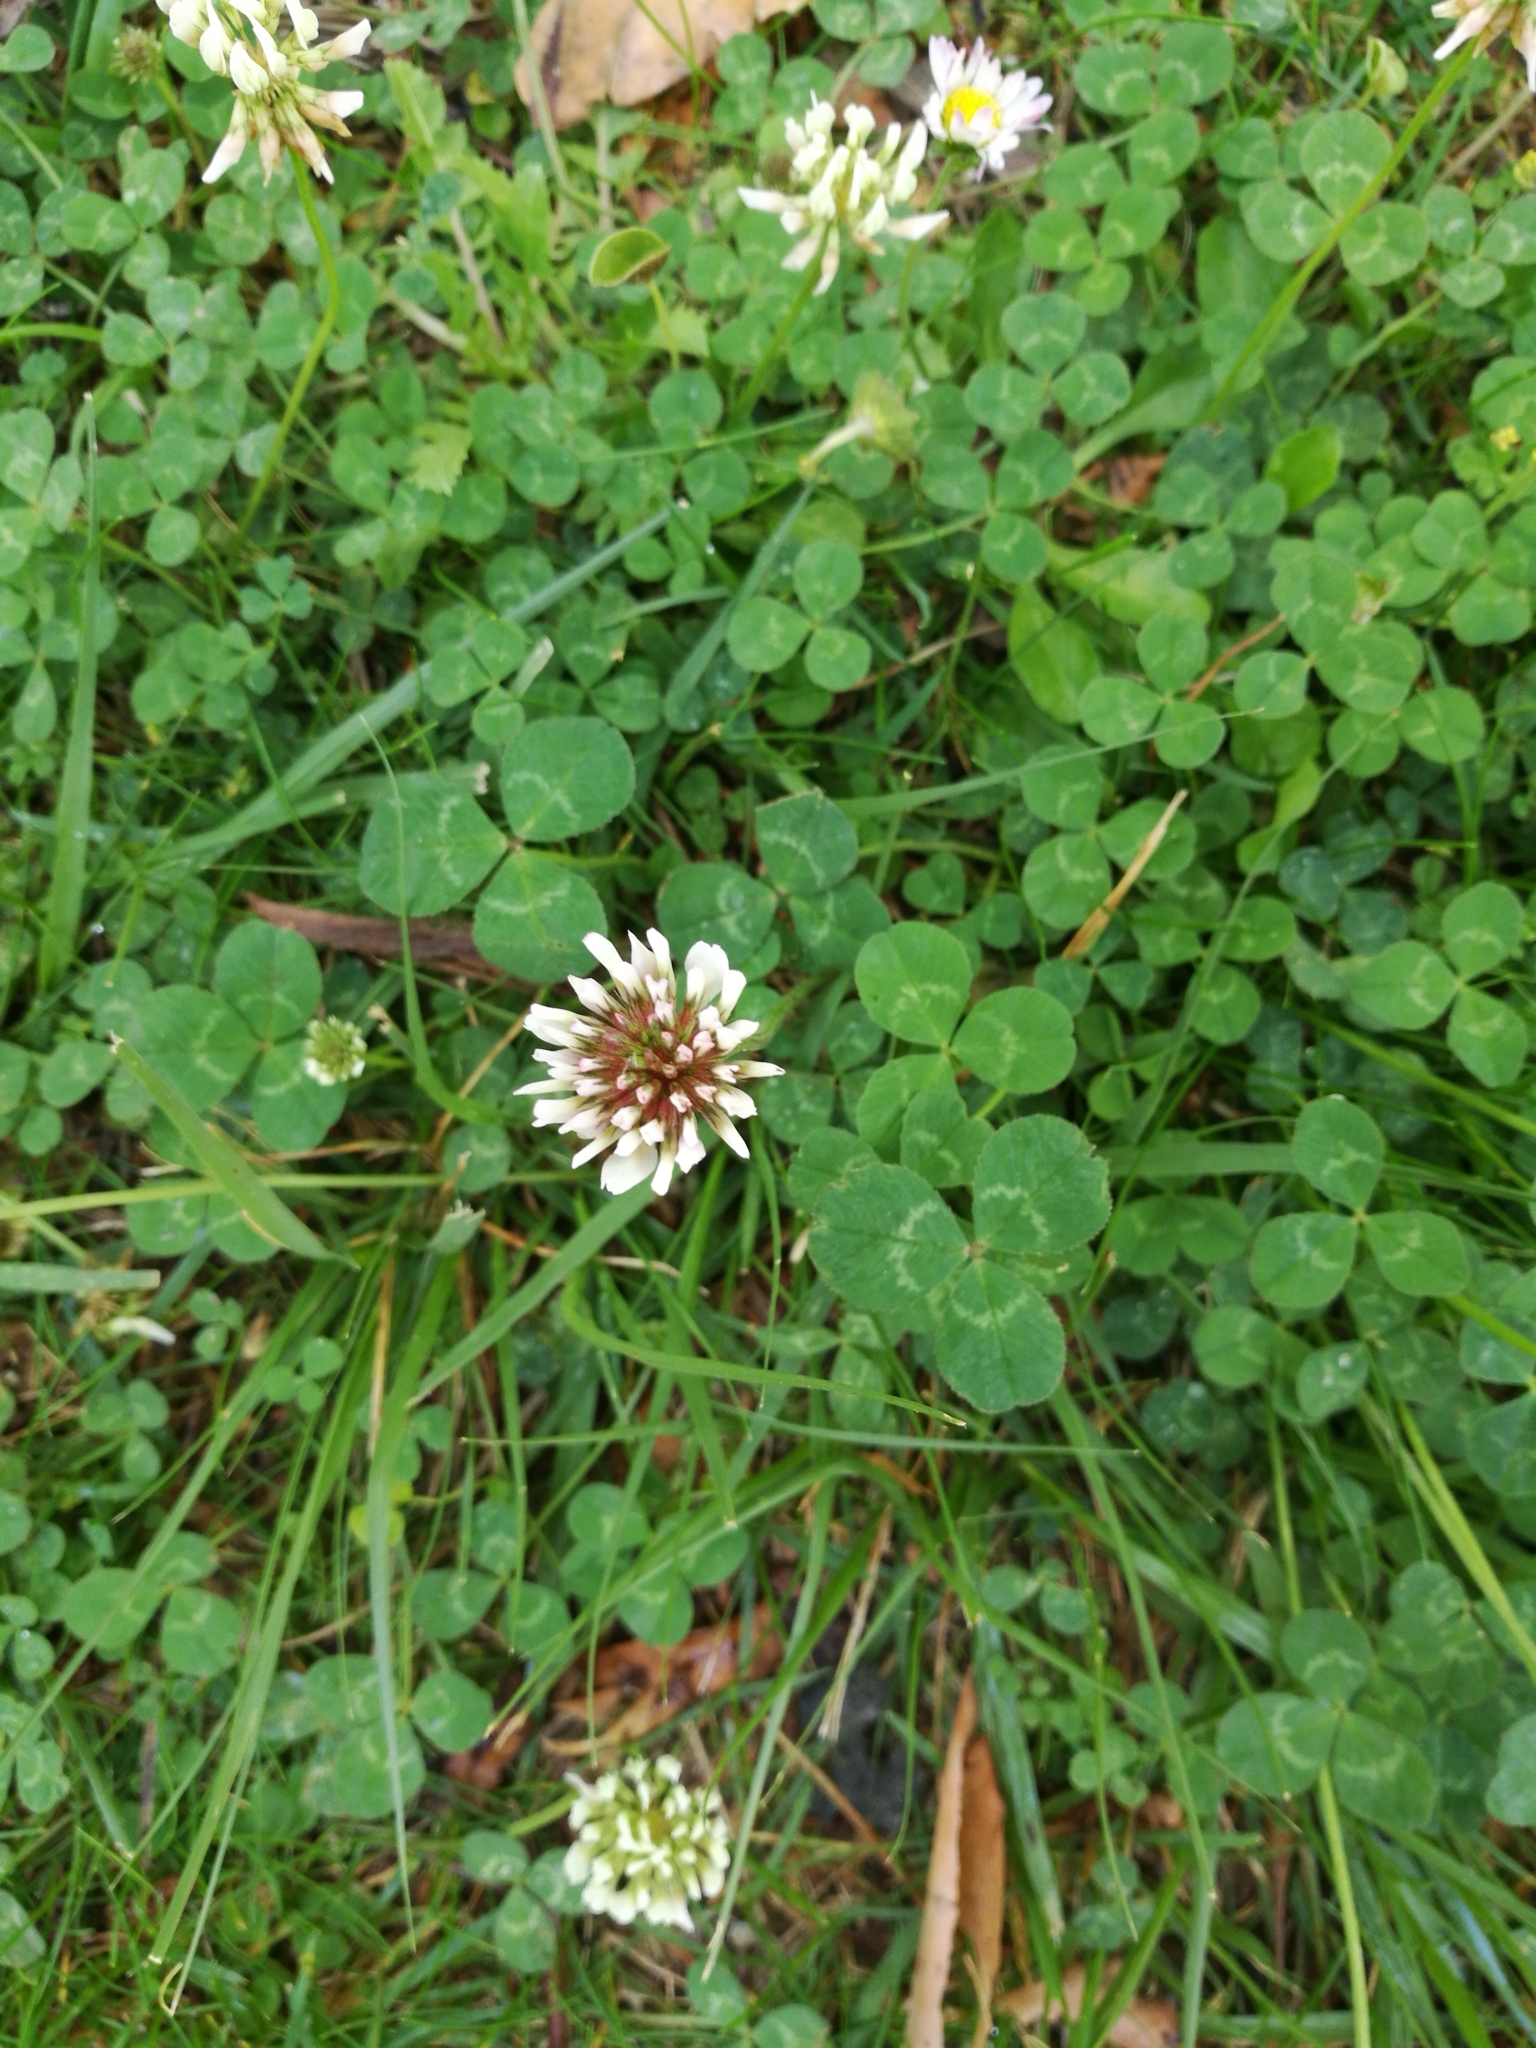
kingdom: Plantae
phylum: Tracheophyta
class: Magnoliopsida
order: Fabales
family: Fabaceae
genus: Trifolium
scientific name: Trifolium repens
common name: White clover
